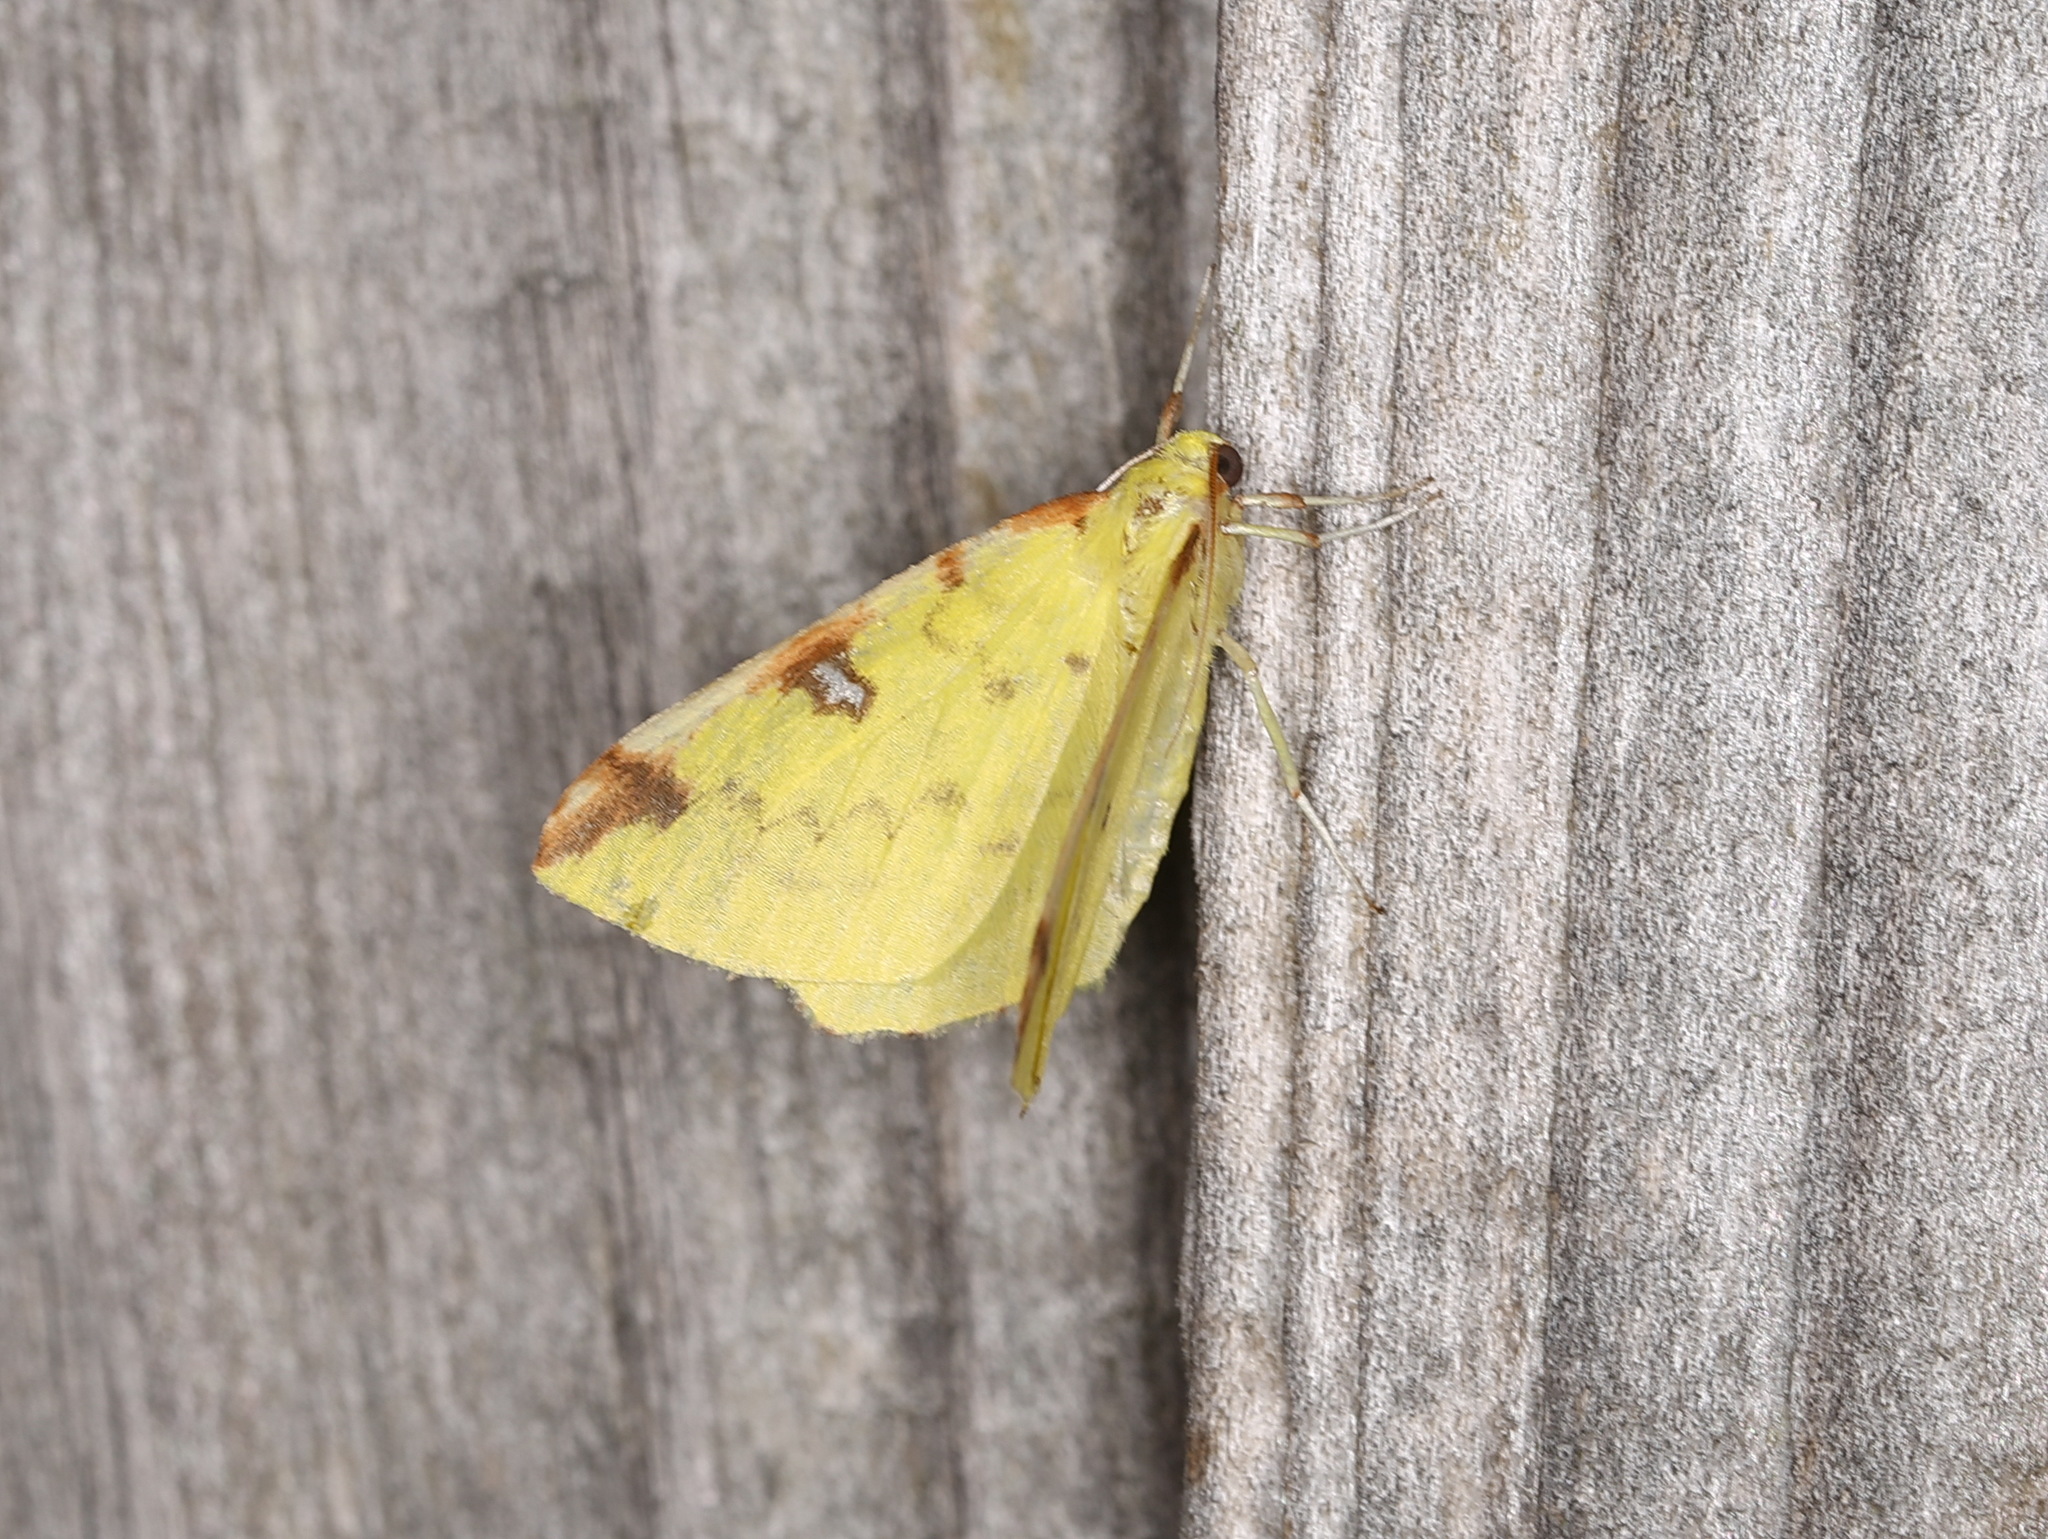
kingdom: Animalia
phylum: Arthropoda
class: Insecta
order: Lepidoptera
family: Geometridae
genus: Opisthograptis
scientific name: Opisthograptis luteolata
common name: Brimstone moth
